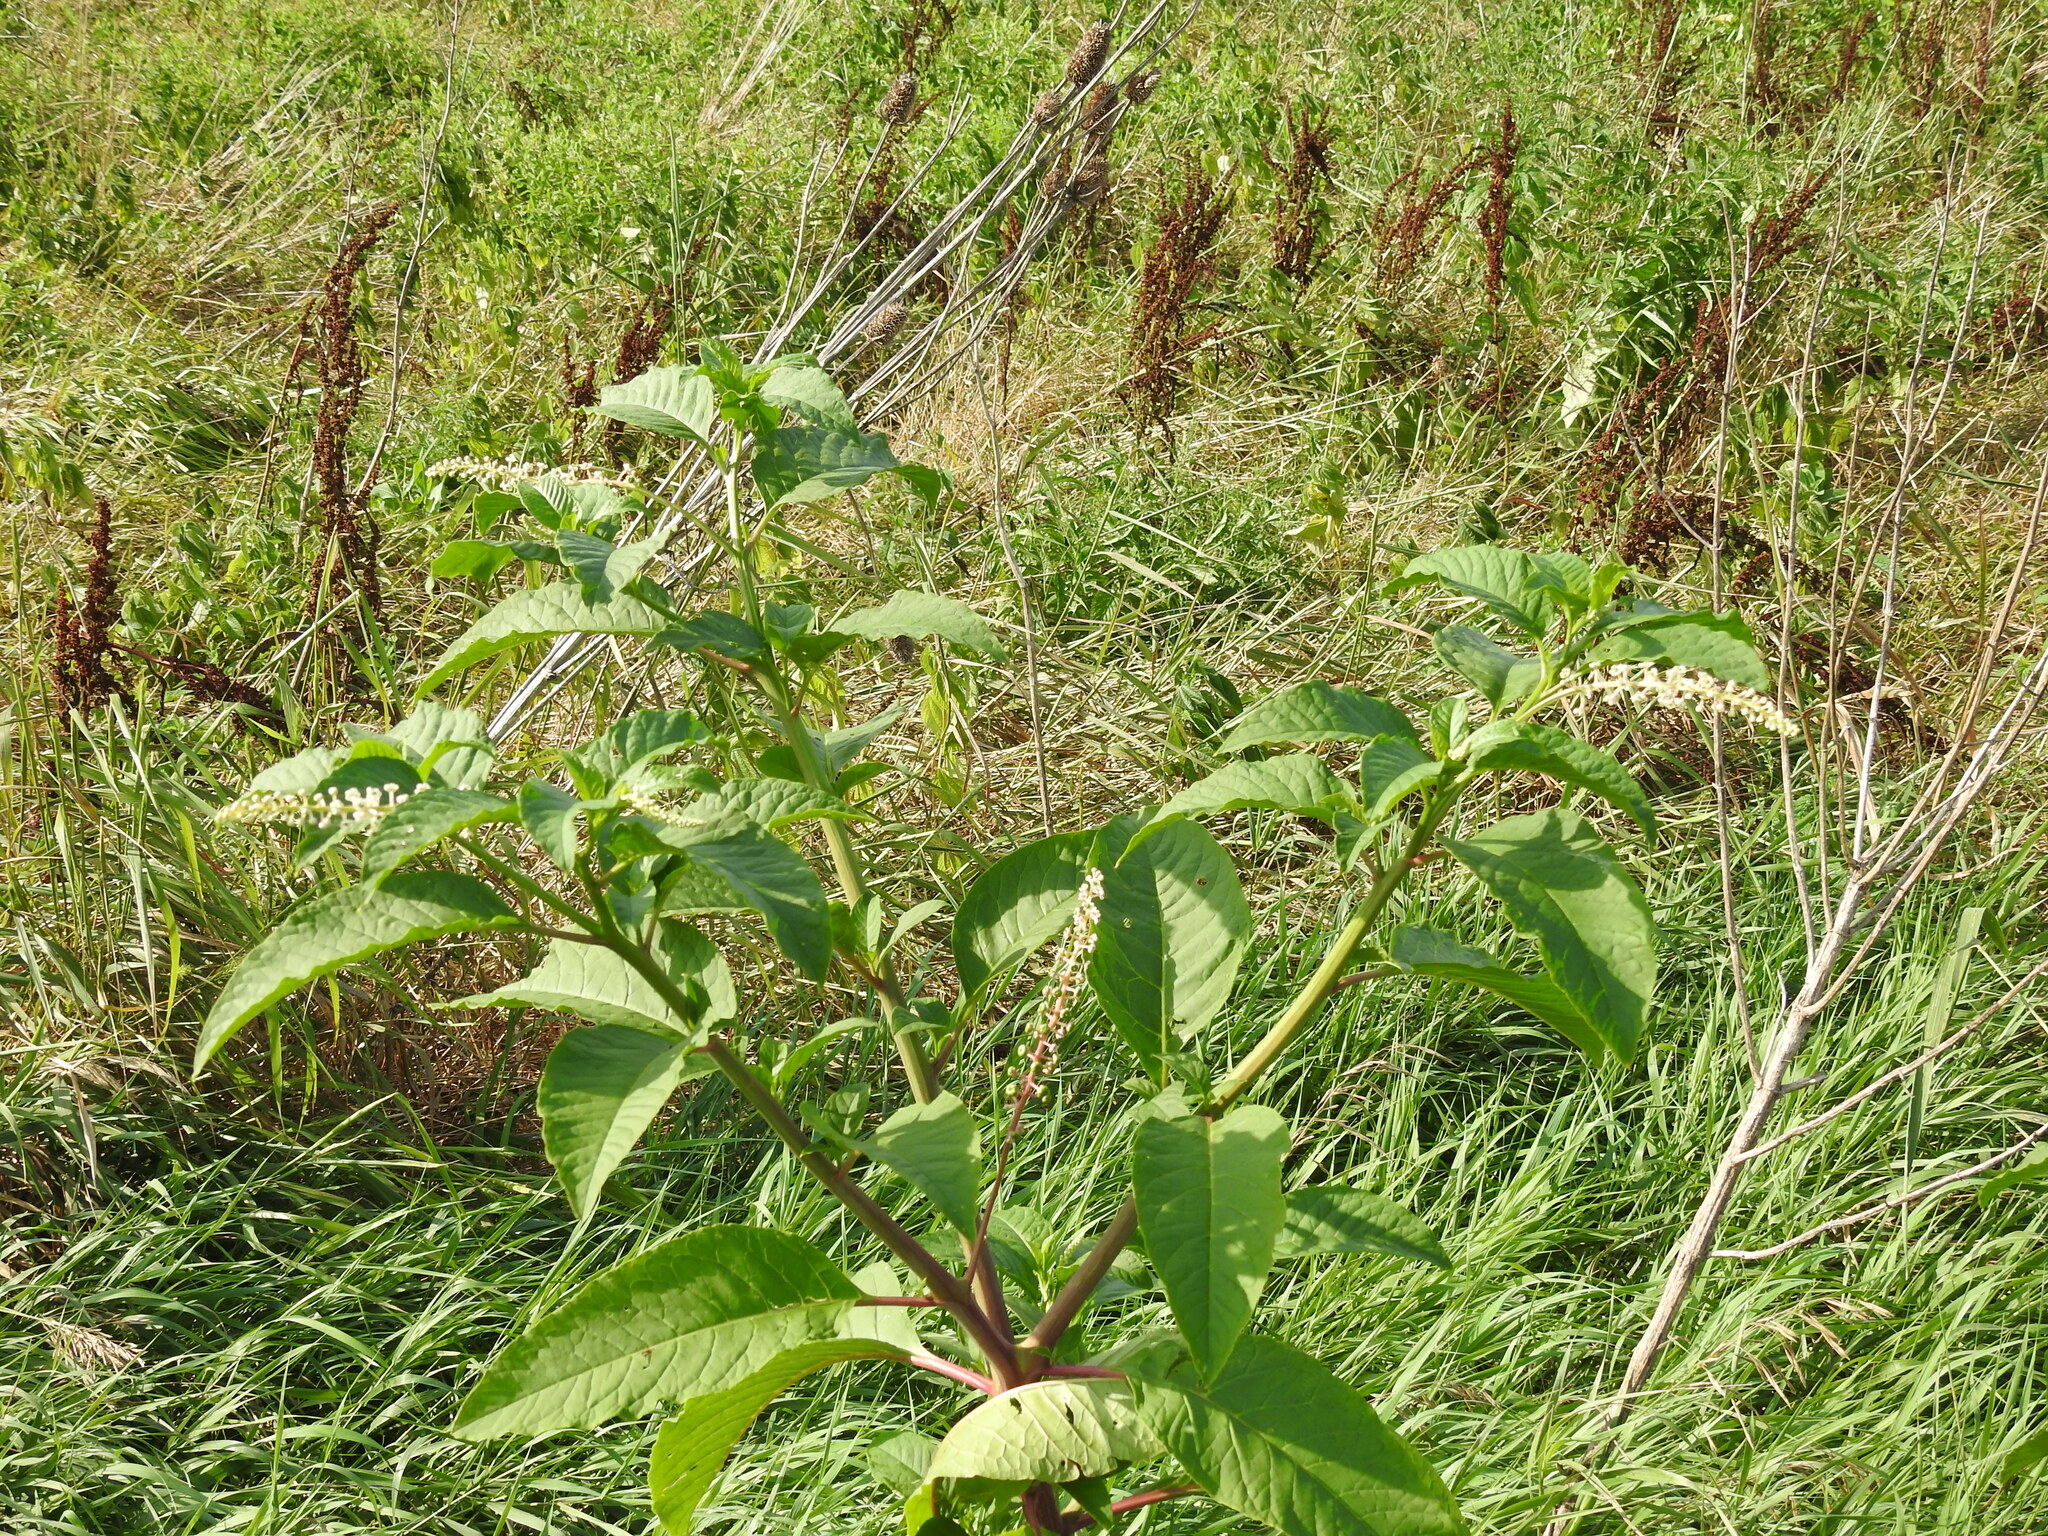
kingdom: Plantae
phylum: Tracheophyta
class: Magnoliopsida
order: Caryophyllales
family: Phytolaccaceae
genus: Phytolacca
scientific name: Phytolacca americana
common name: American pokeweed
